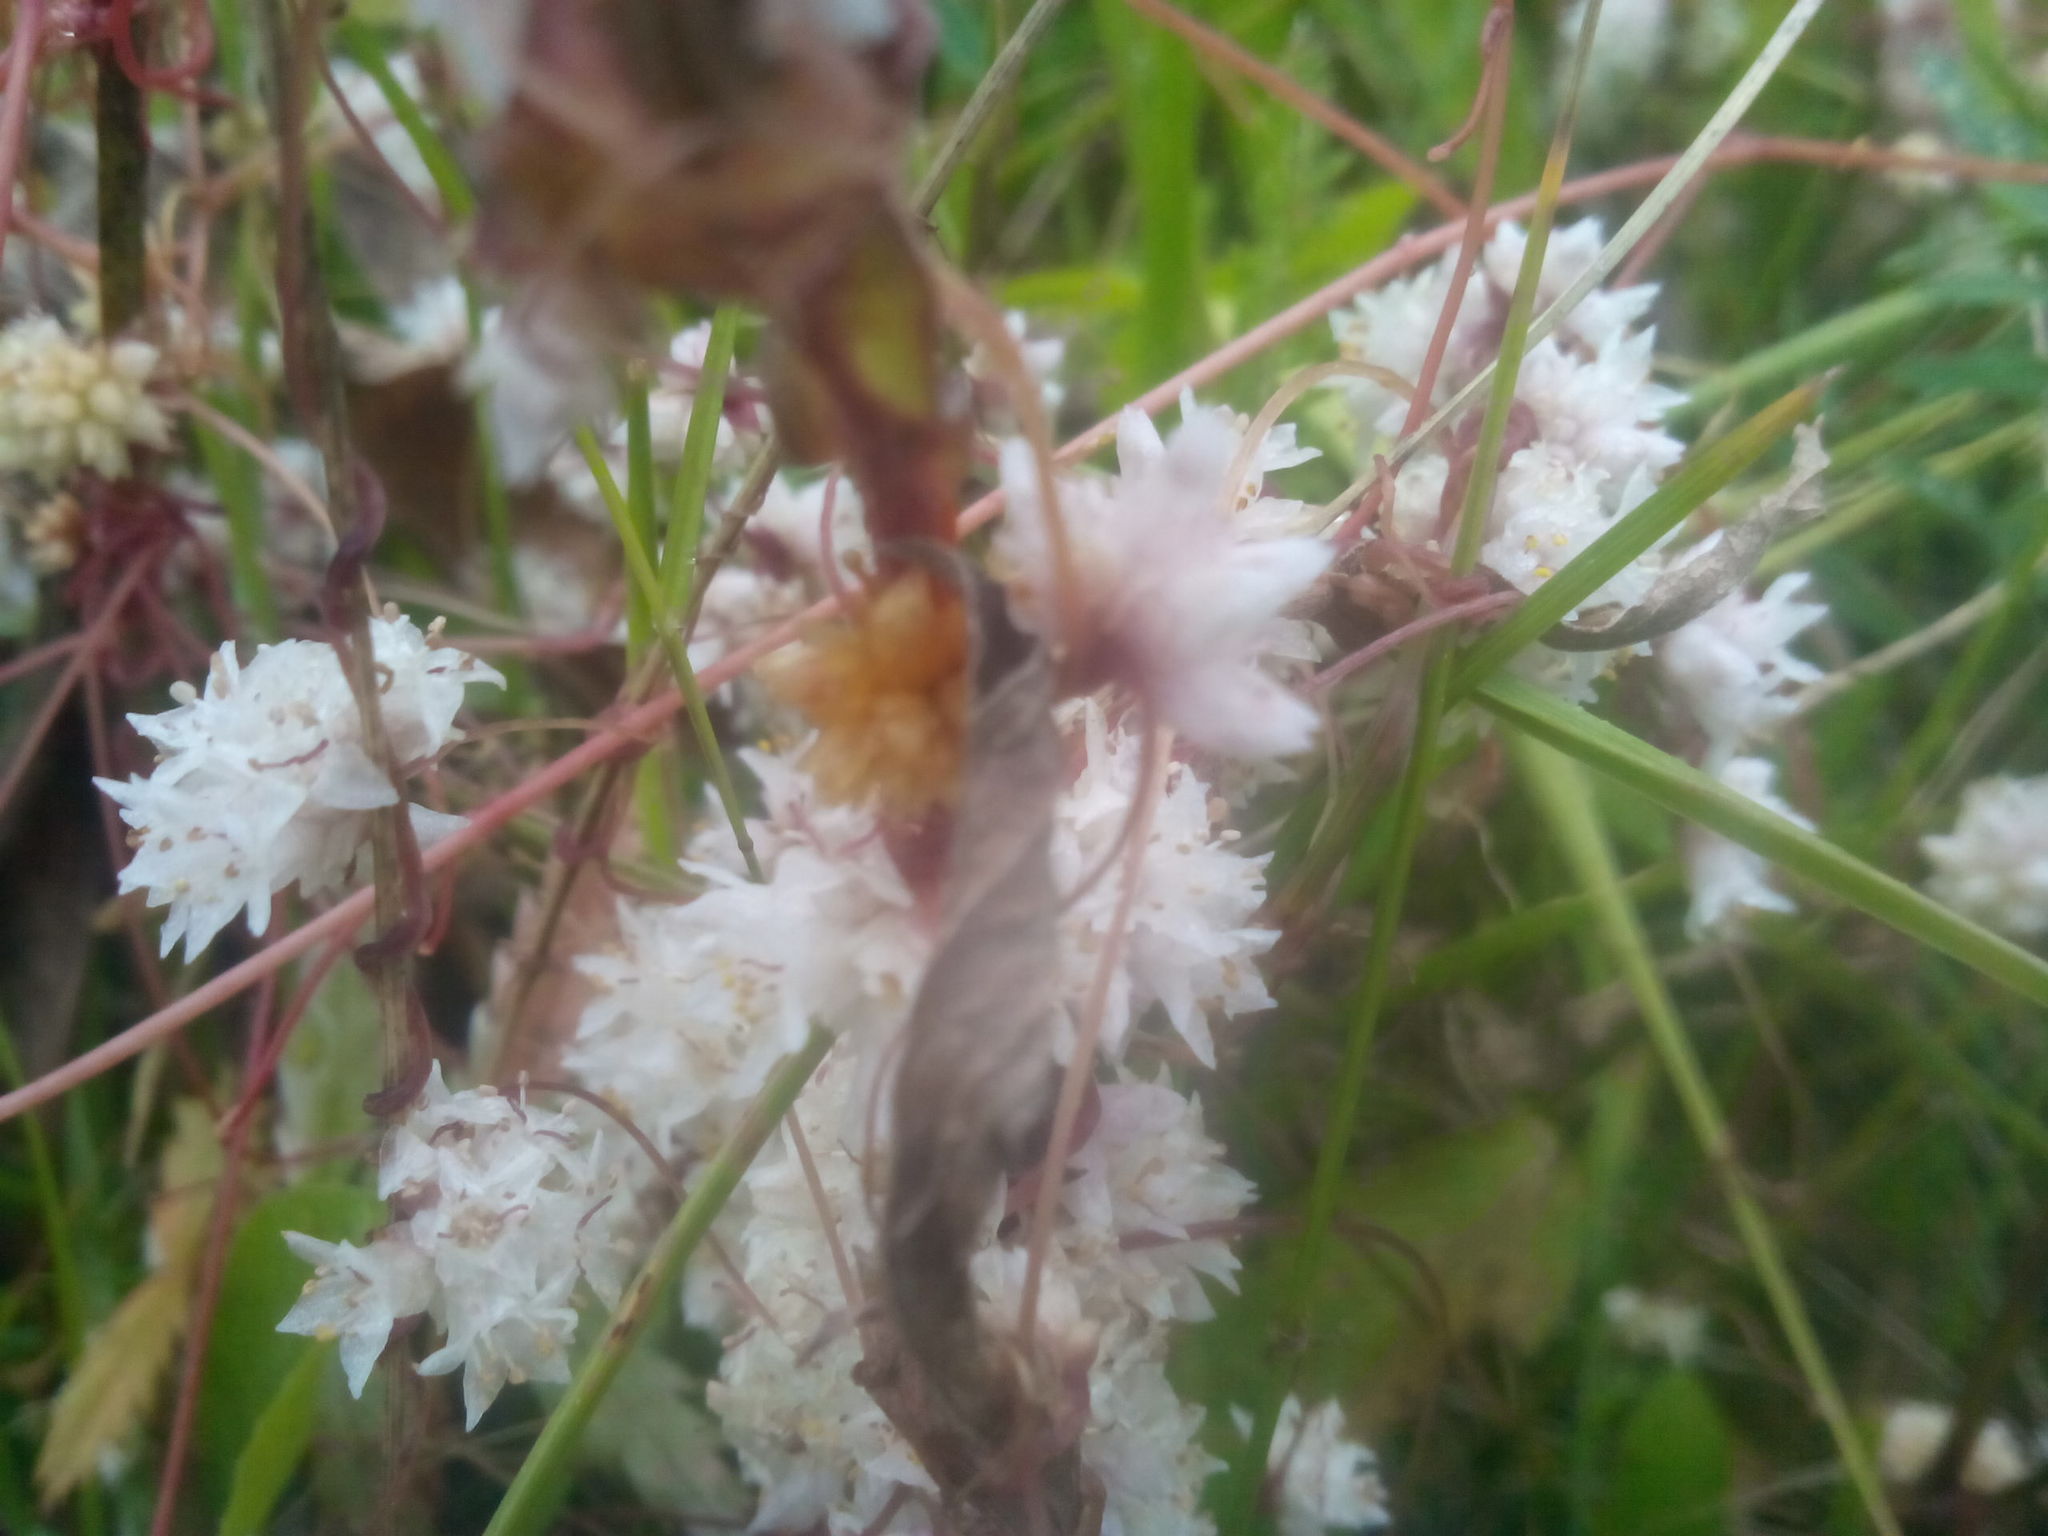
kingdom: Plantae
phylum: Tracheophyta
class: Magnoliopsida
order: Solanales
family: Convolvulaceae
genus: Cuscuta
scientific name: Cuscuta epithymum
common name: Clover dodder
